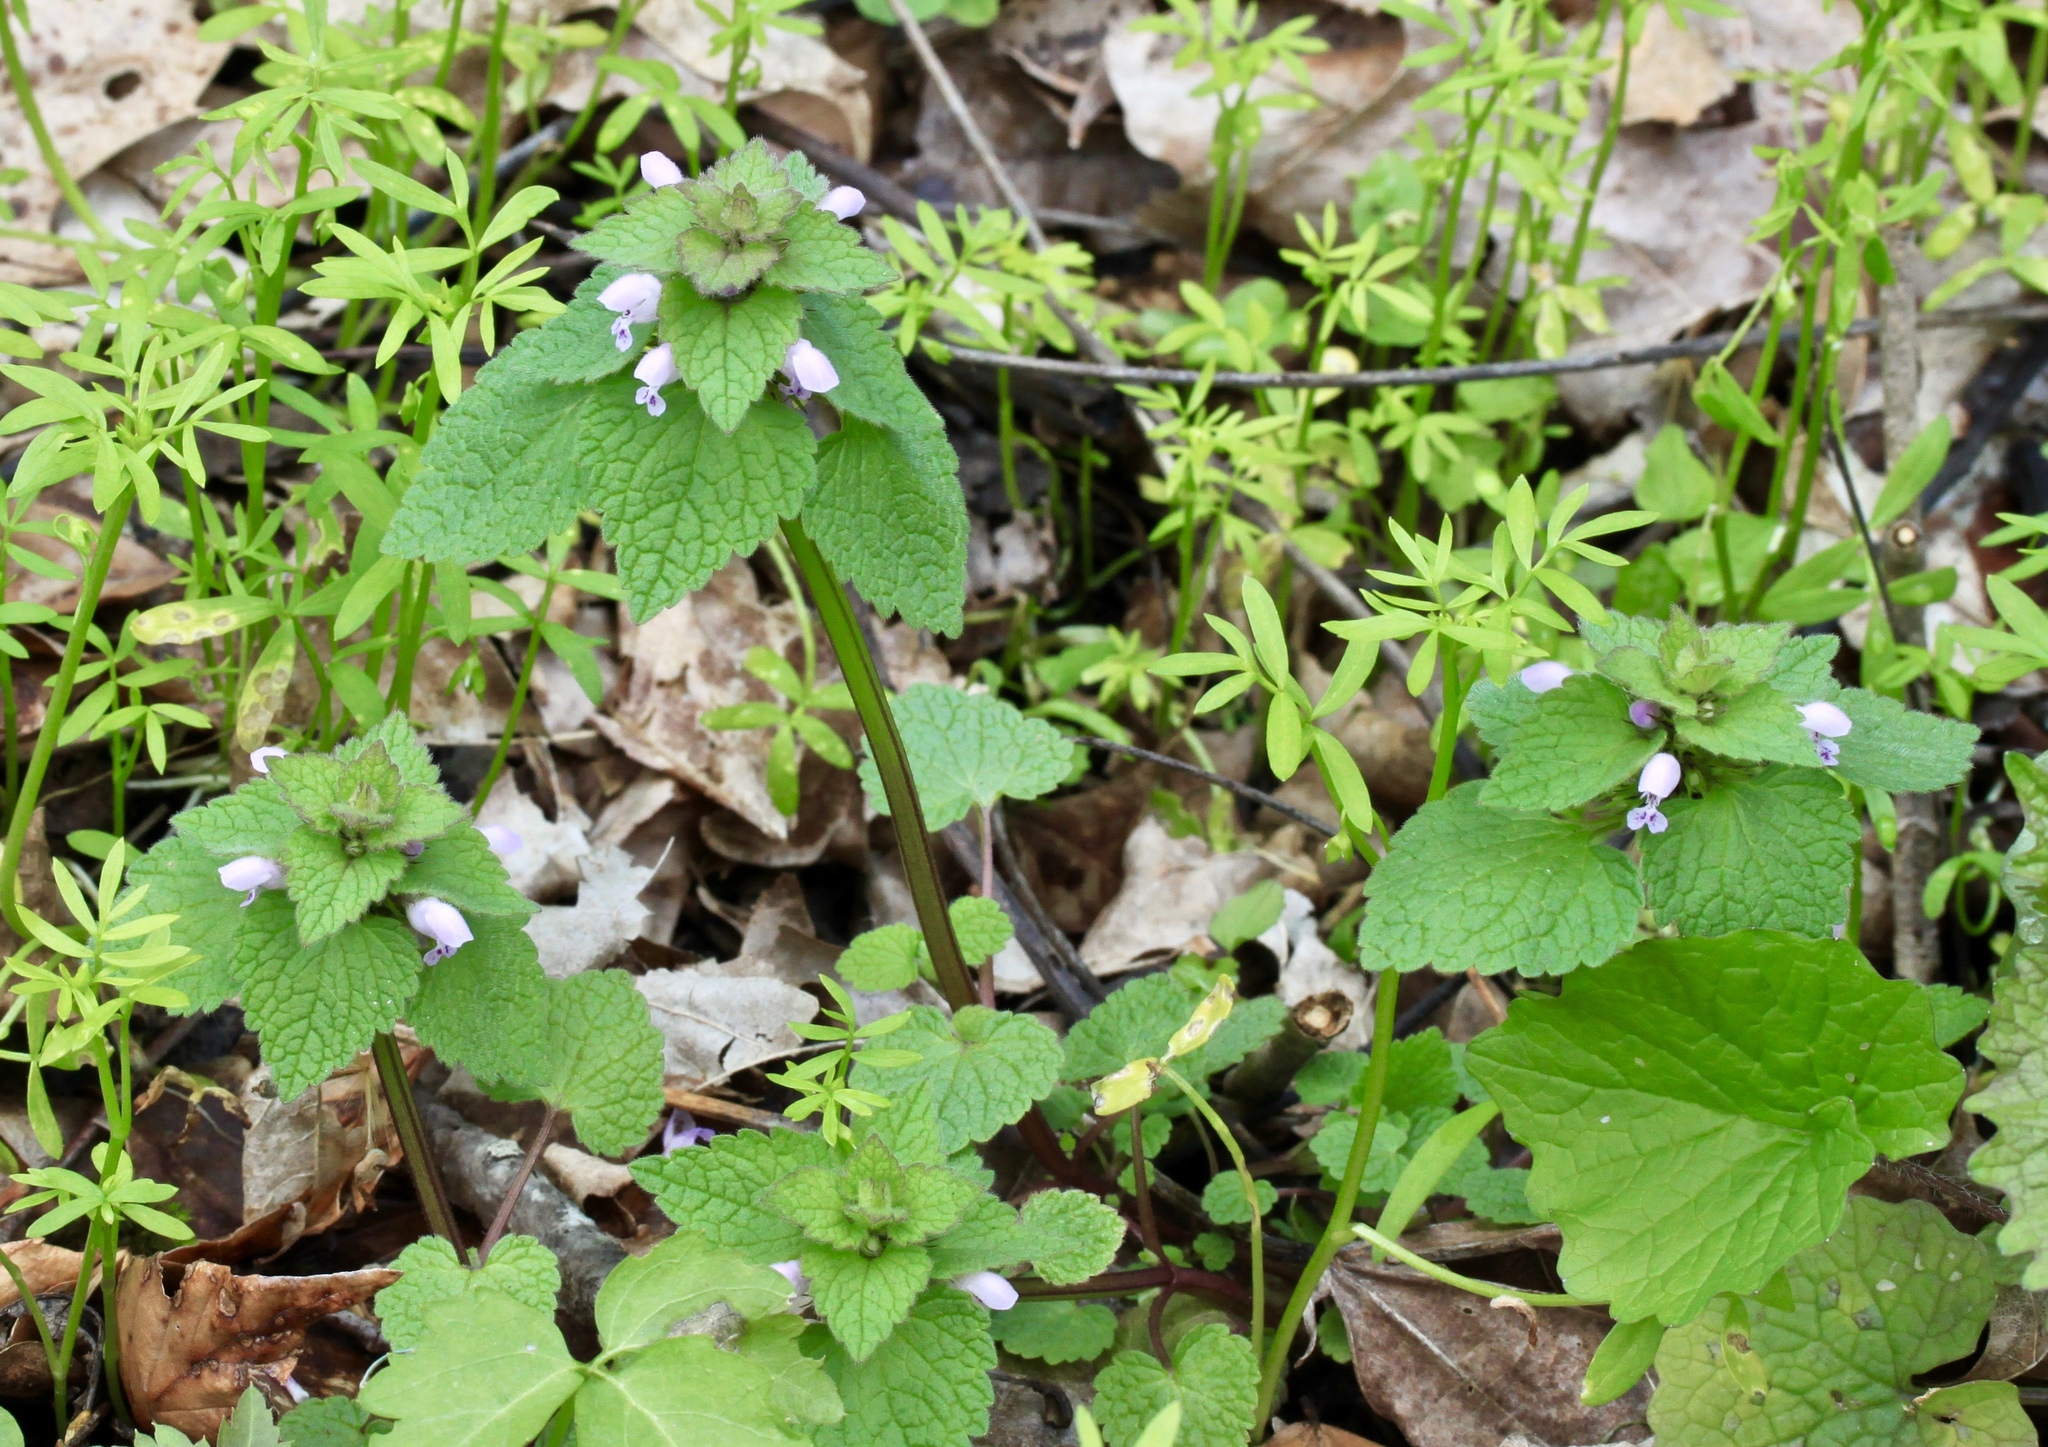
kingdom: Plantae
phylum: Tracheophyta
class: Magnoliopsida
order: Lamiales
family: Lamiaceae
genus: Lamium
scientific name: Lamium purpureum
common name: Red dead-nettle
